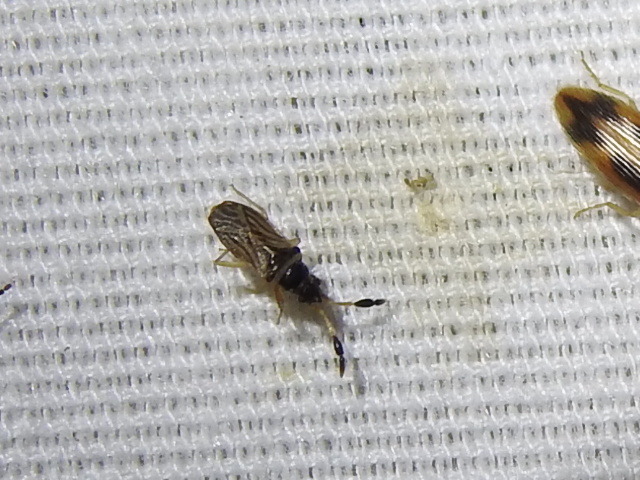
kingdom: Animalia
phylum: Arthropoda
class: Insecta
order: Hemiptera
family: Rhyparochromidae
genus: Ptochiomera
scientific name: Ptochiomera nodosa
